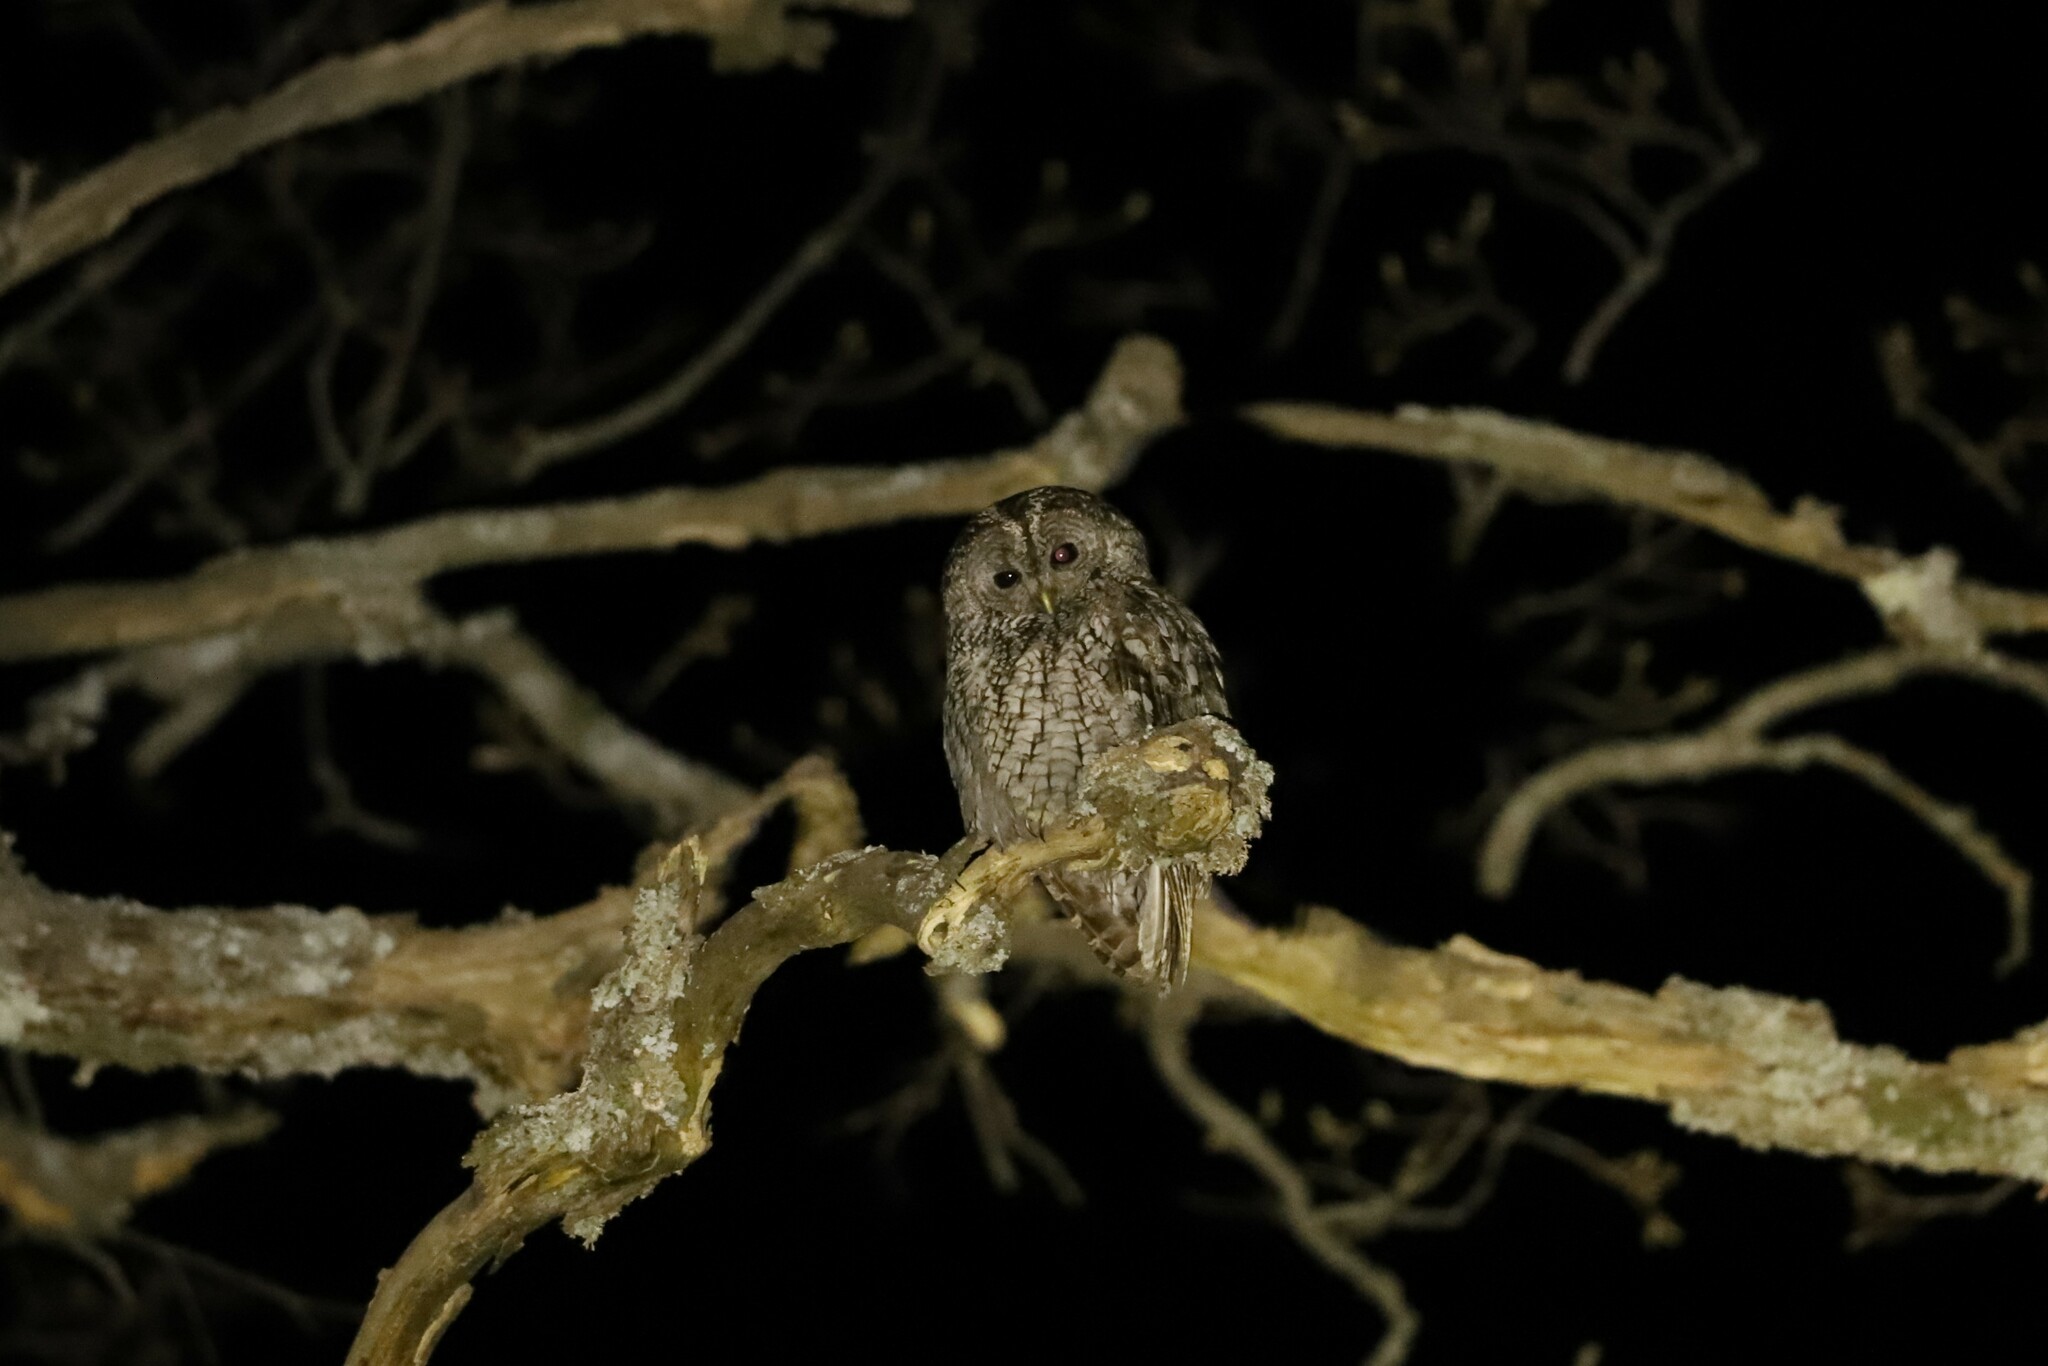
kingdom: Animalia
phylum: Chordata
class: Aves
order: Strigiformes
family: Strigidae
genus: Strix
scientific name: Strix aluco
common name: Tawny owl
